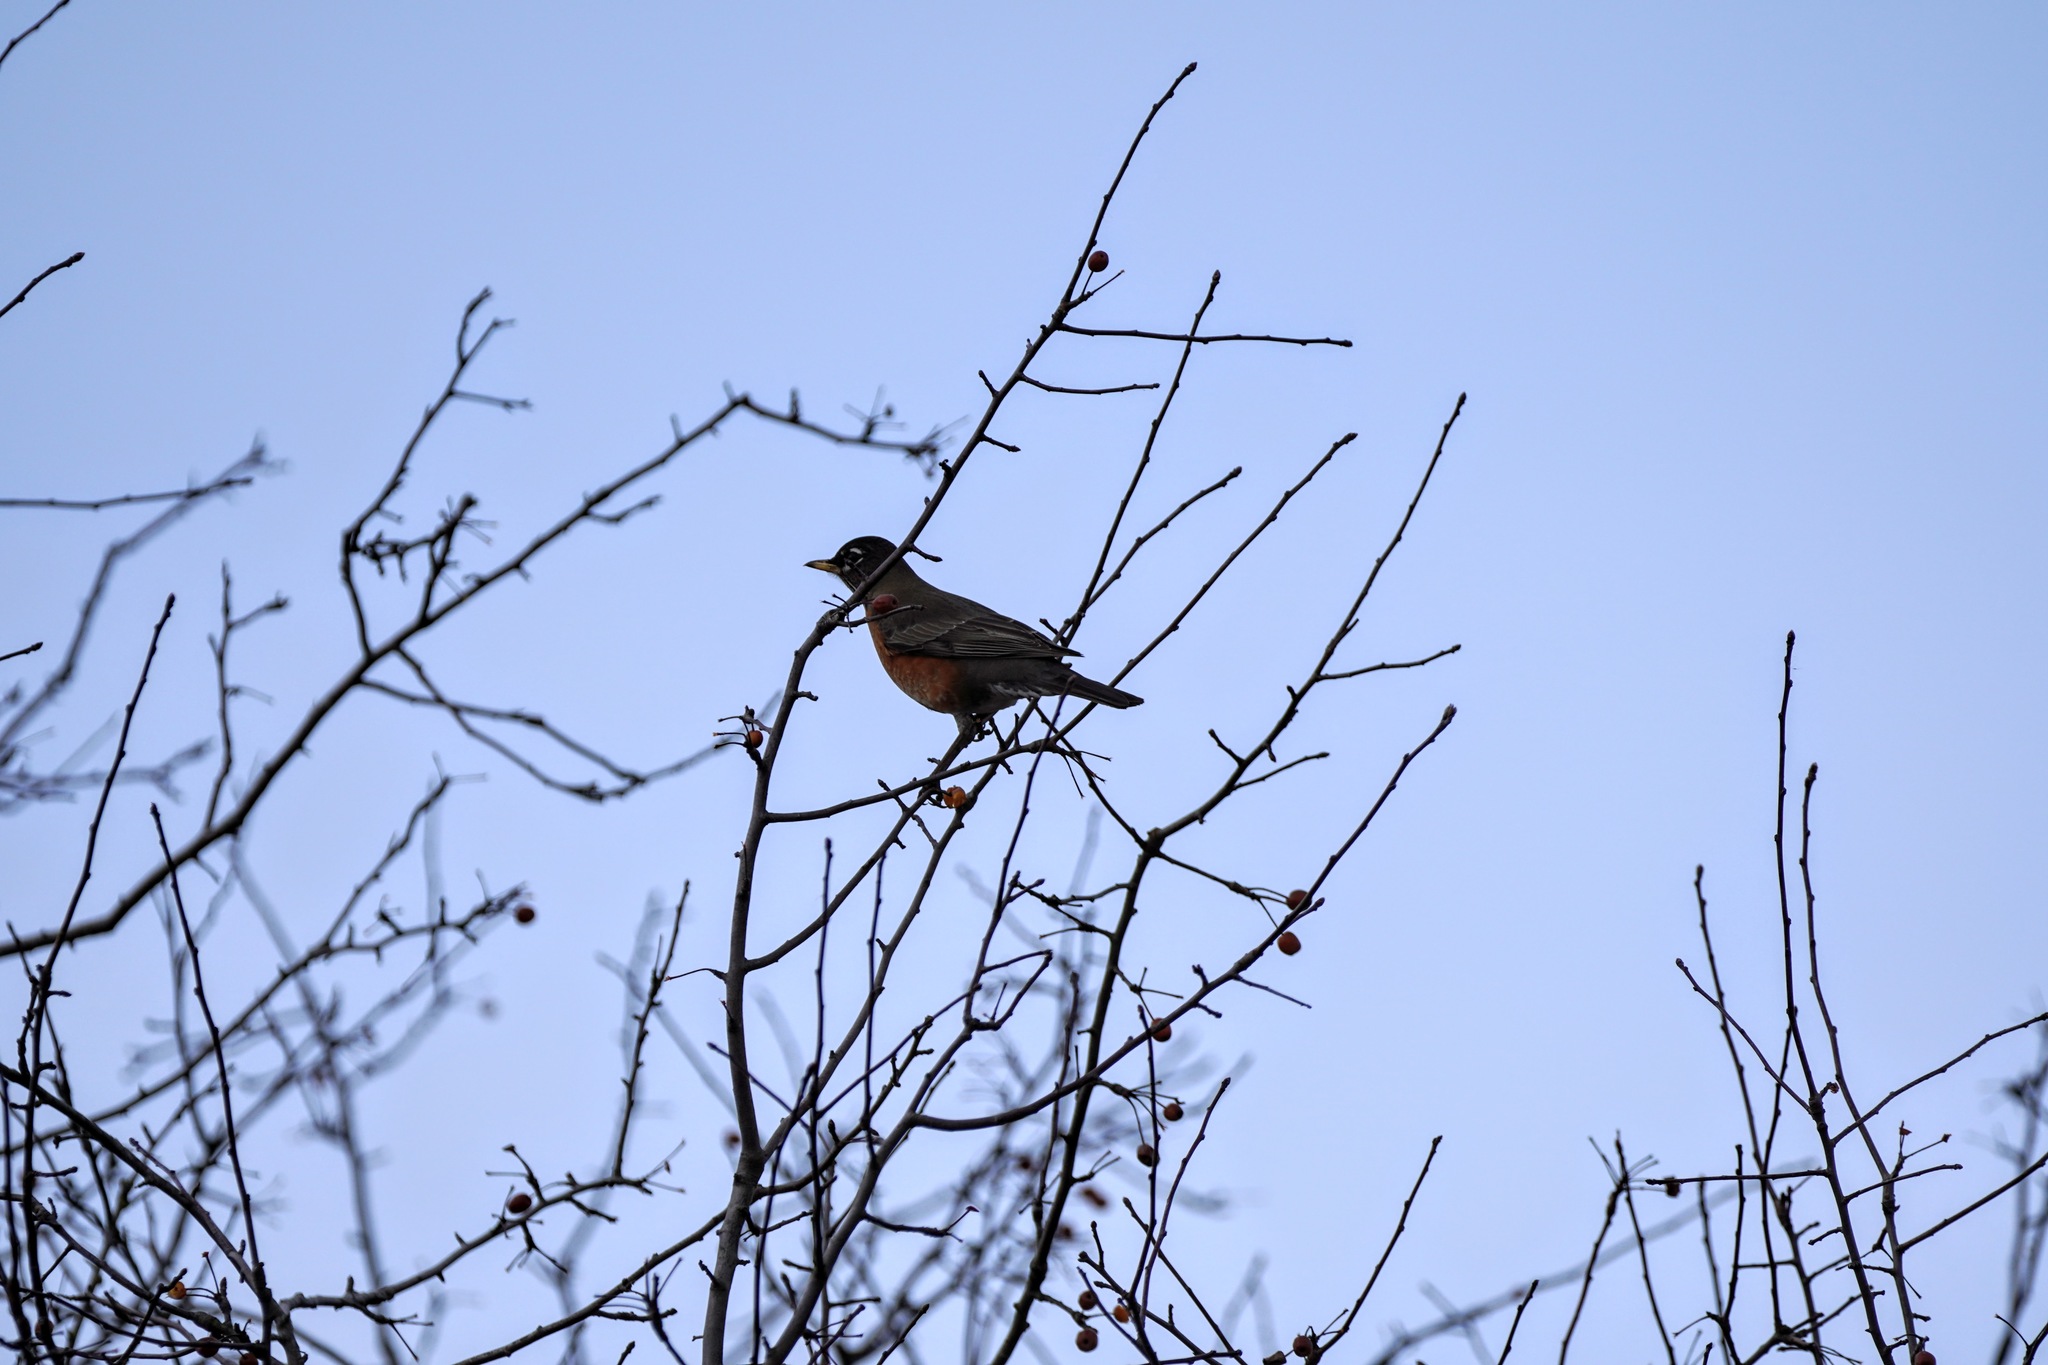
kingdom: Animalia
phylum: Chordata
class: Aves
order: Passeriformes
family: Turdidae
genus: Turdus
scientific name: Turdus migratorius
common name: American robin
